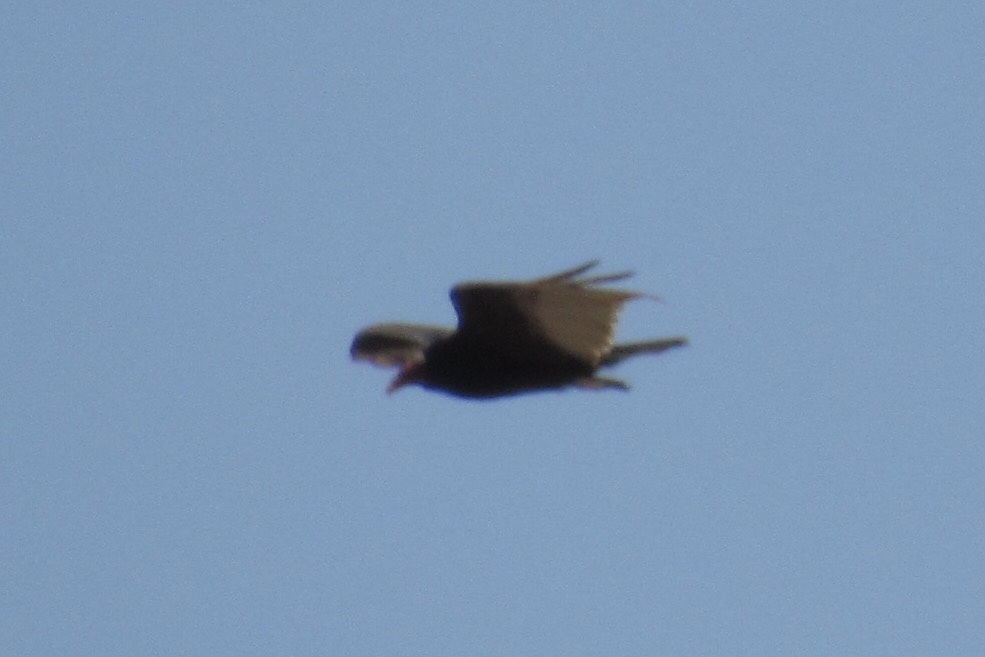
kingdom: Animalia
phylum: Chordata
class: Aves
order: Accipitriformes
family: Cathartidae
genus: Cathartes
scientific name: Cathartes aura
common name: Turkey vulture
